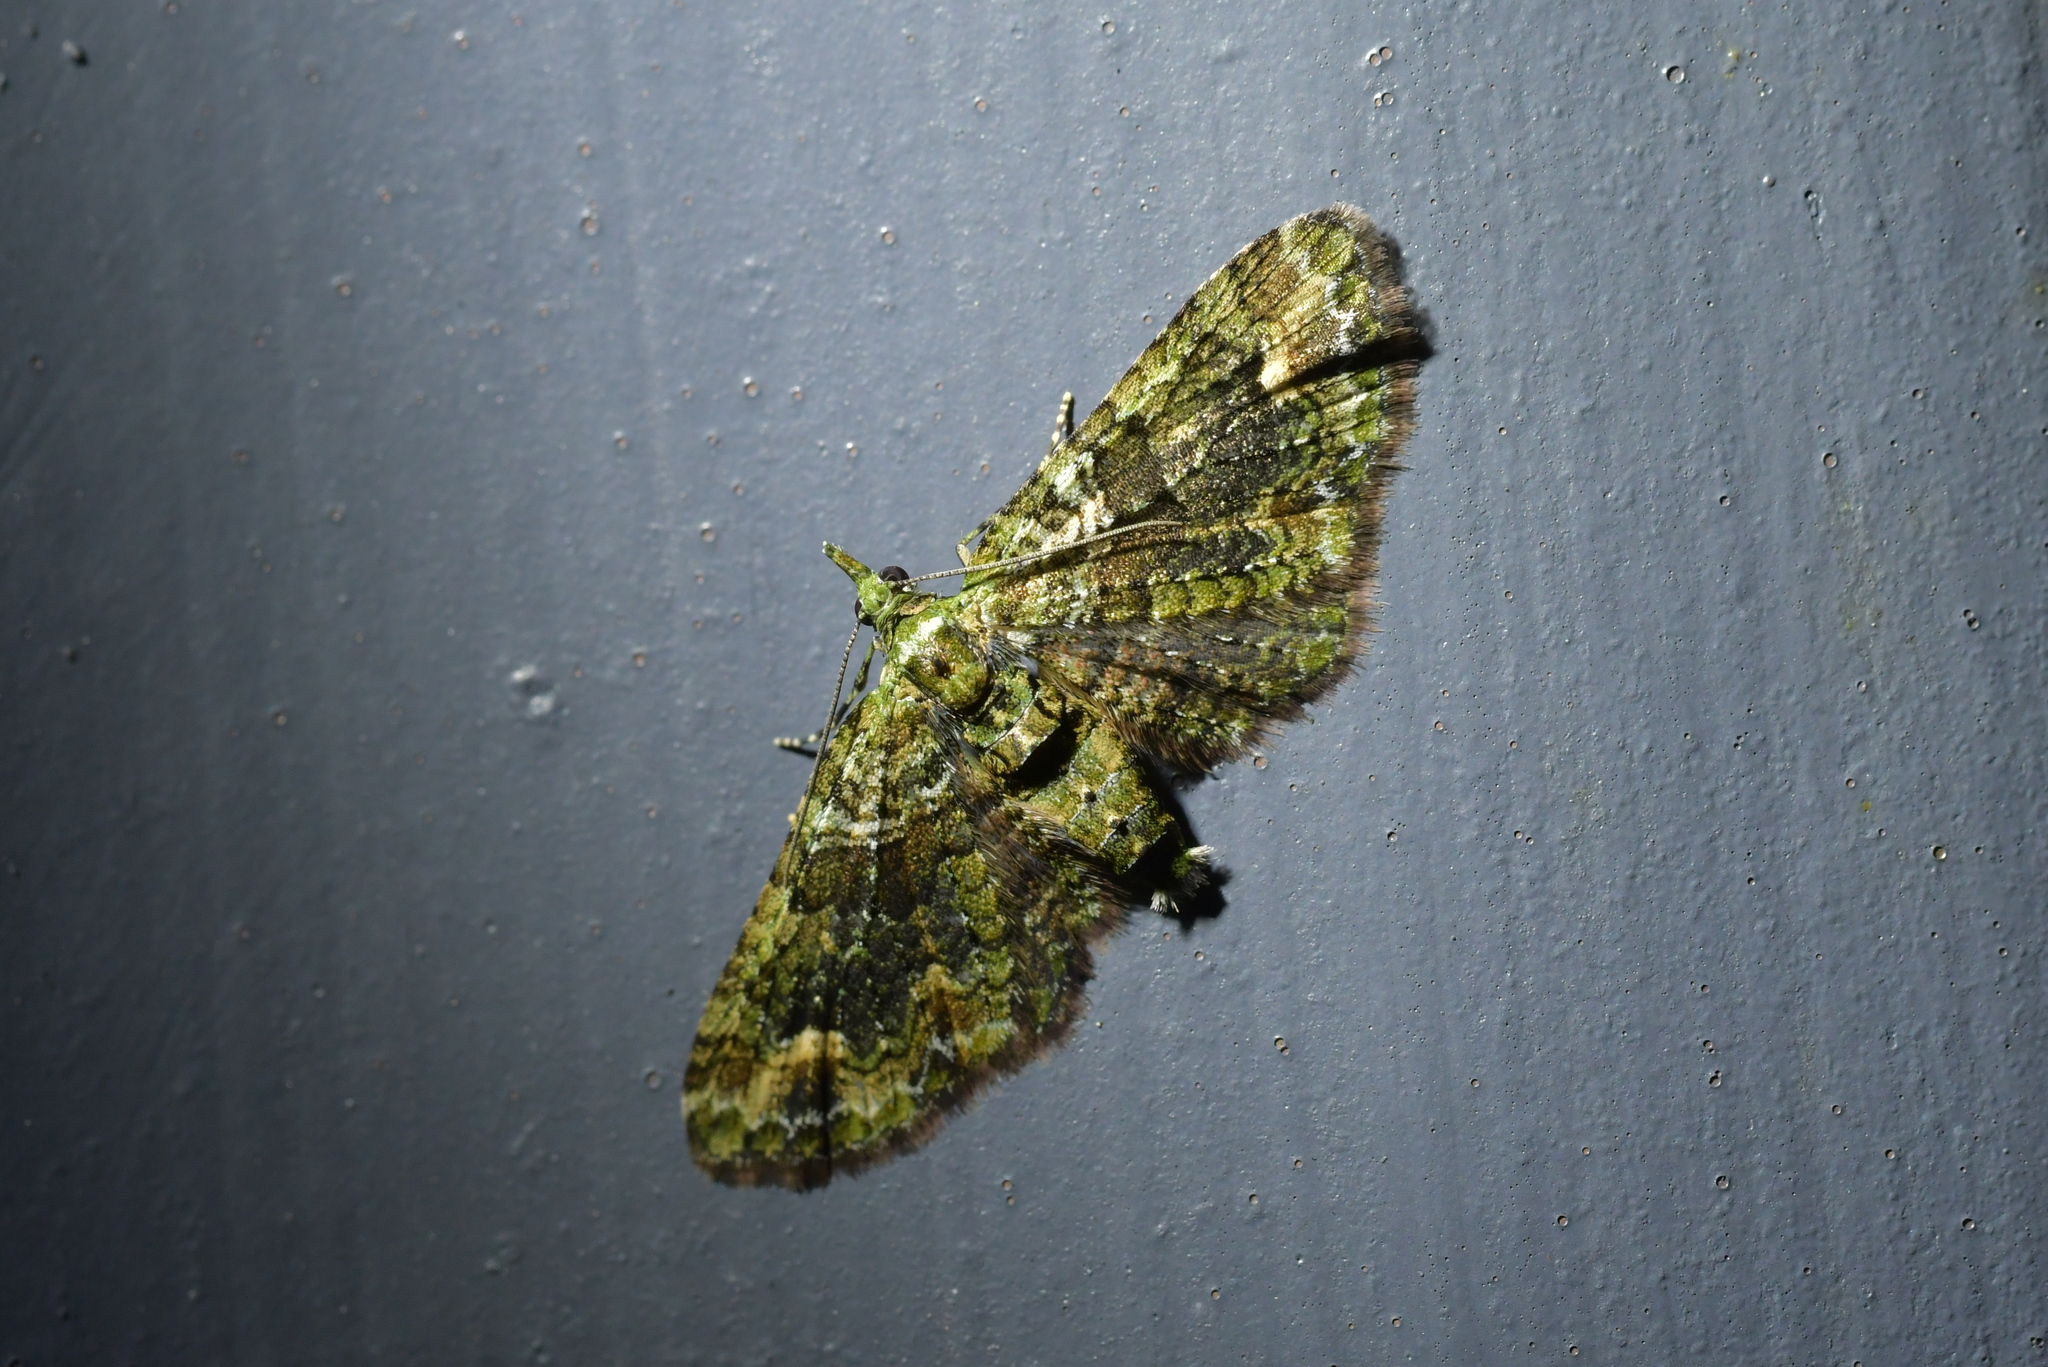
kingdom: Animalia
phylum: Arthropoda
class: Insecta
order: Lepidoptera
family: Geometridae
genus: Idaea
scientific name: Idaea mutanda
